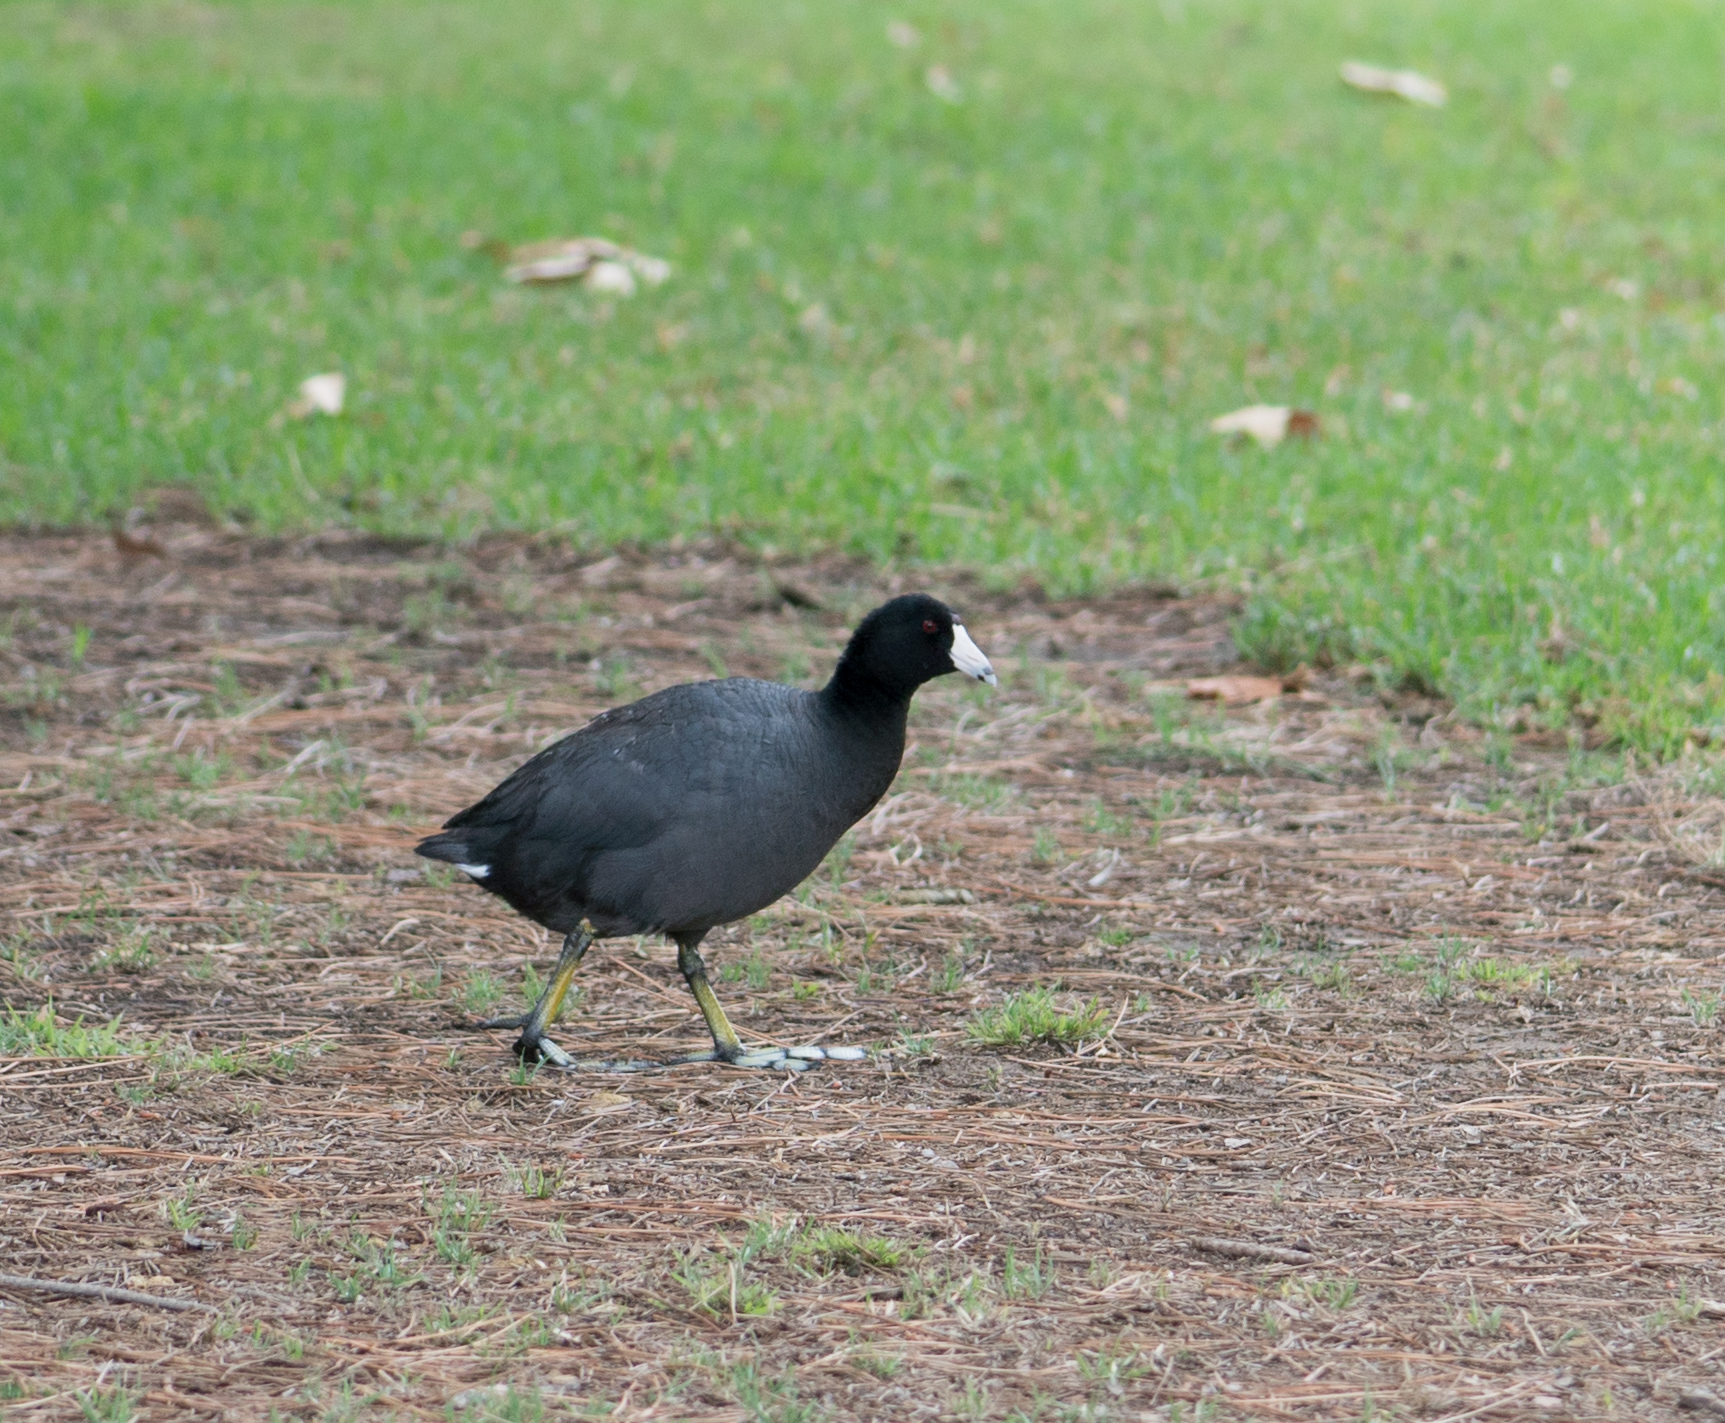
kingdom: Animalia
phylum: Chordata
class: Aves
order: Gruiformes
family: Rallidae
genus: Fulica
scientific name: Fulica americana
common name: American coot
